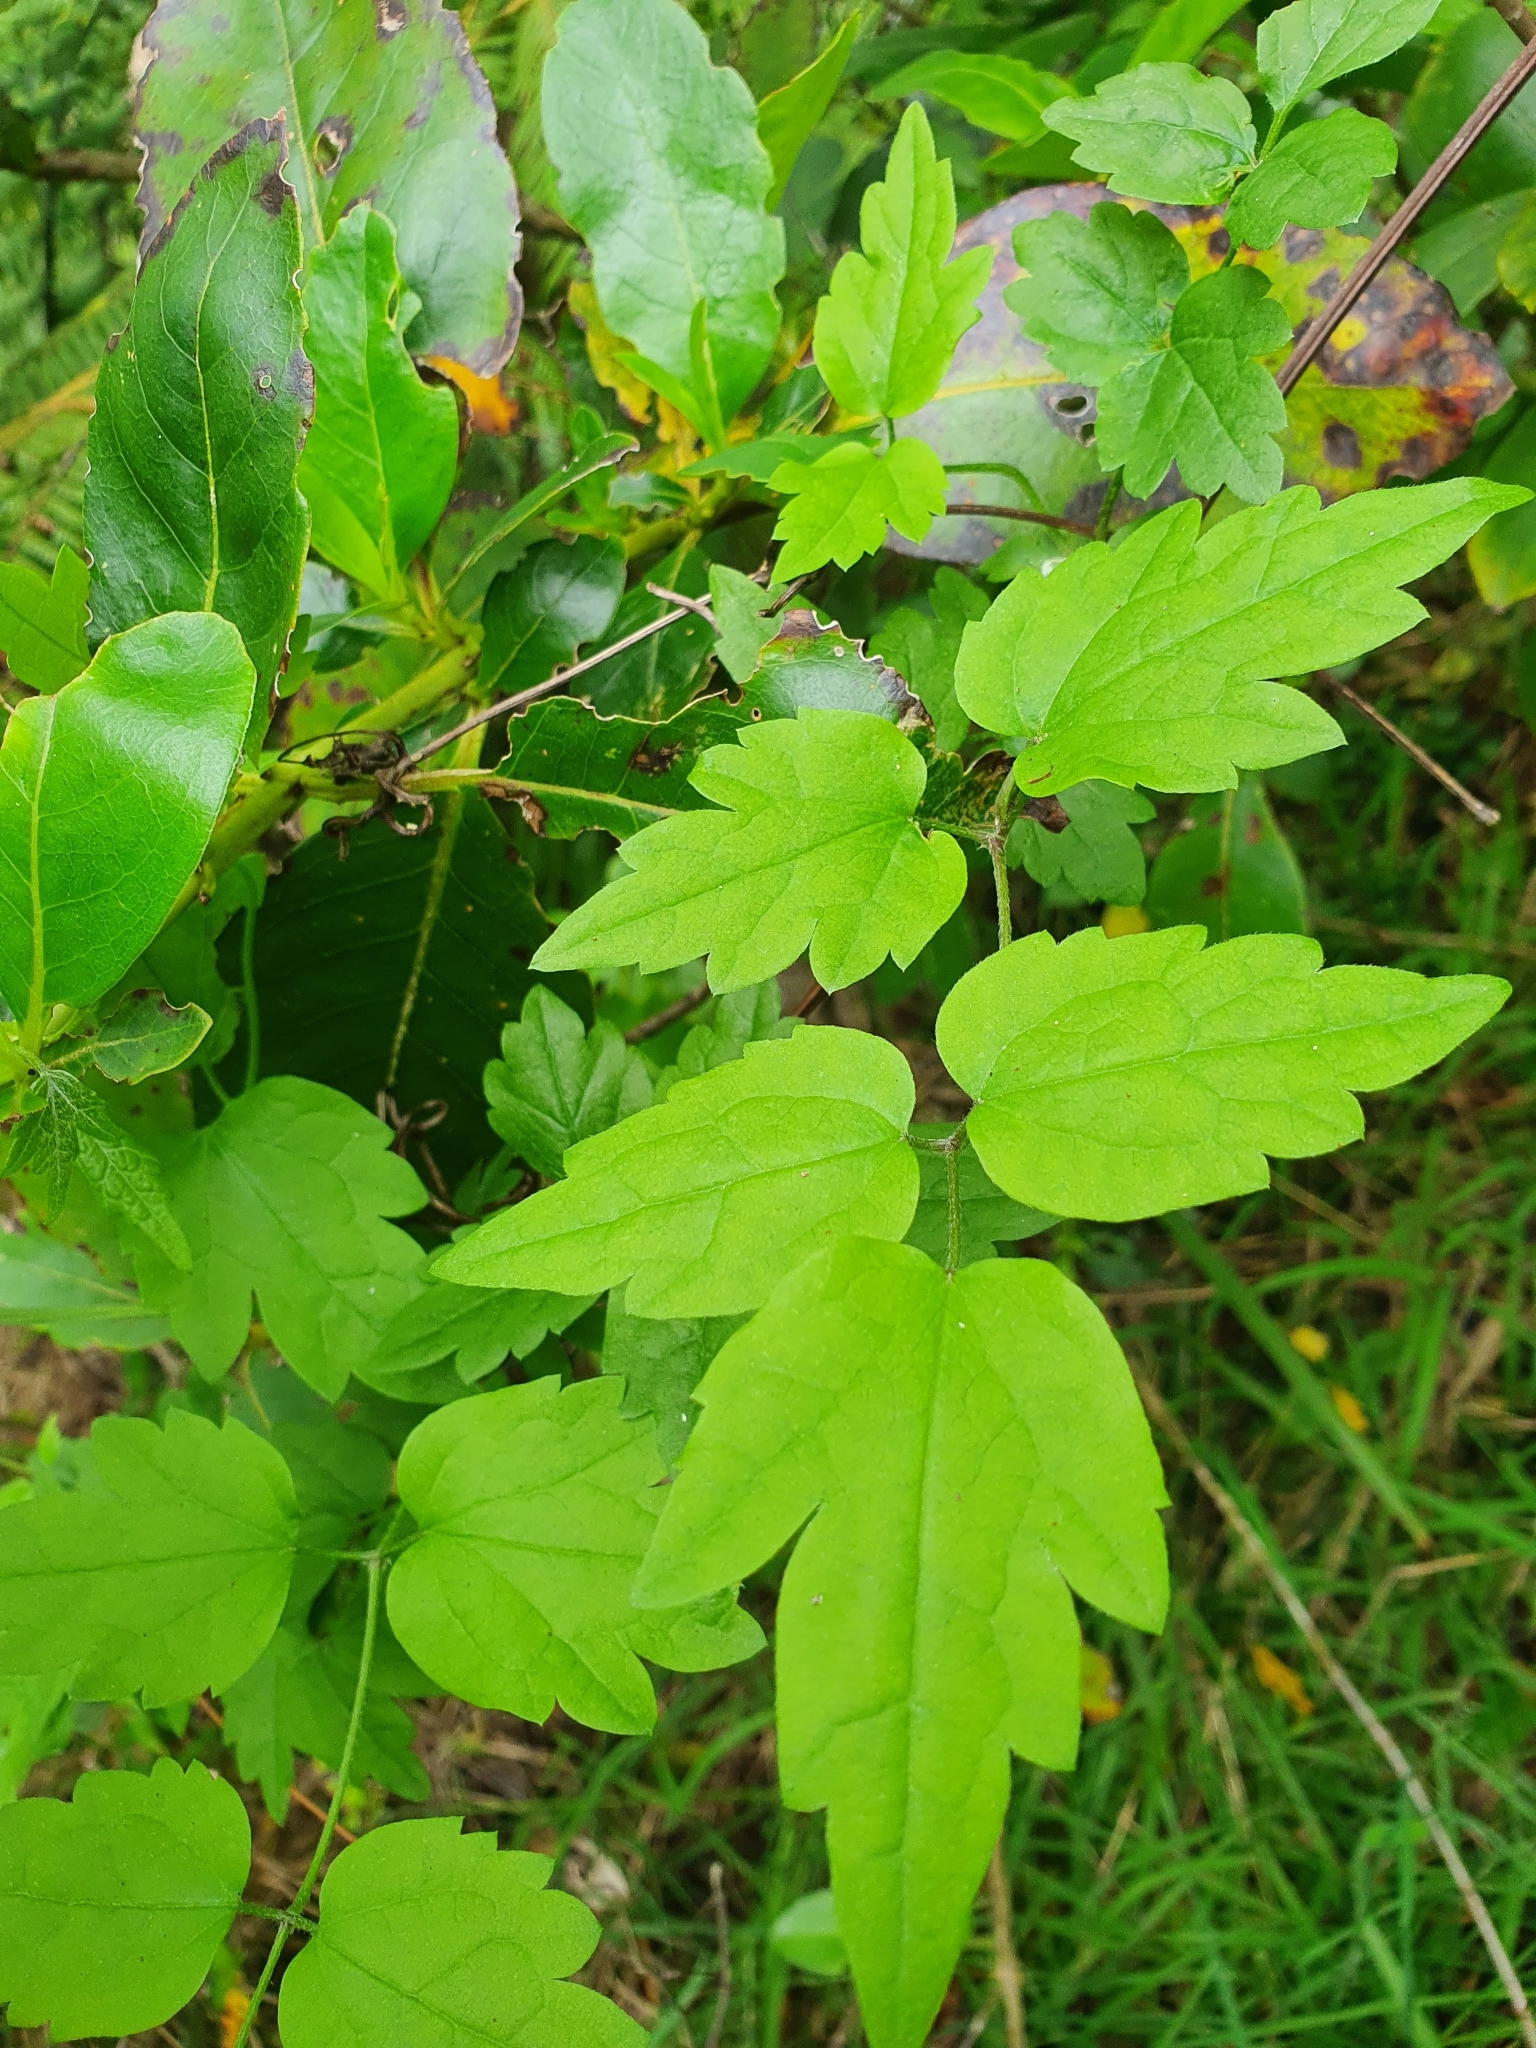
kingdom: Plantae
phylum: Tracheophyta
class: Magnoliopsida
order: Ranunculales
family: Ranunculaceae
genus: Clematis
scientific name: Clematis vitalba
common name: Evergreen clematis
